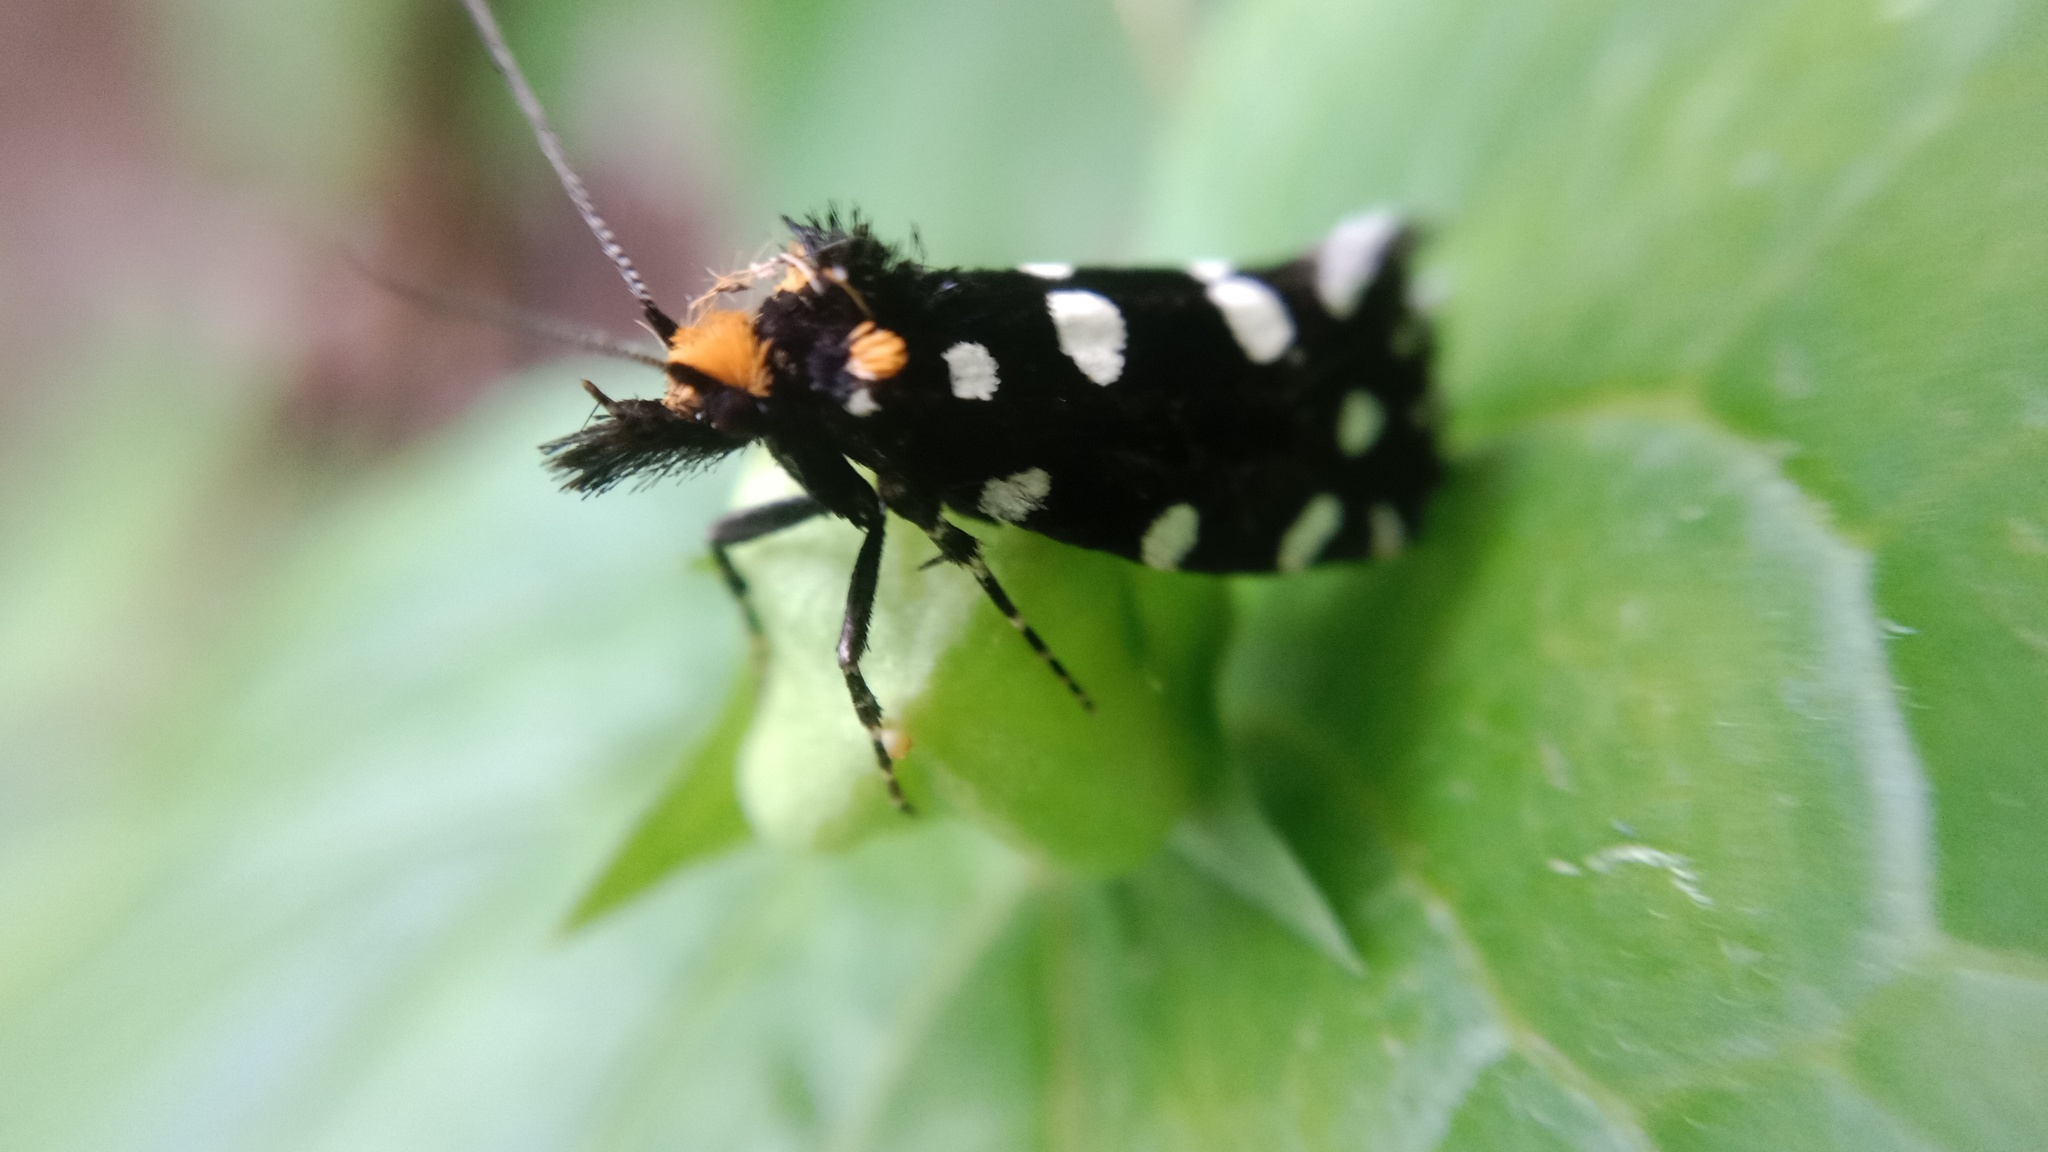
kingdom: Animalia
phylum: Arthropoda
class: Insecta
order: Lepidoptera
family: Tineidae
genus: Euplocamus
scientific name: Euplocamus anthracinalis
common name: Black clothes
